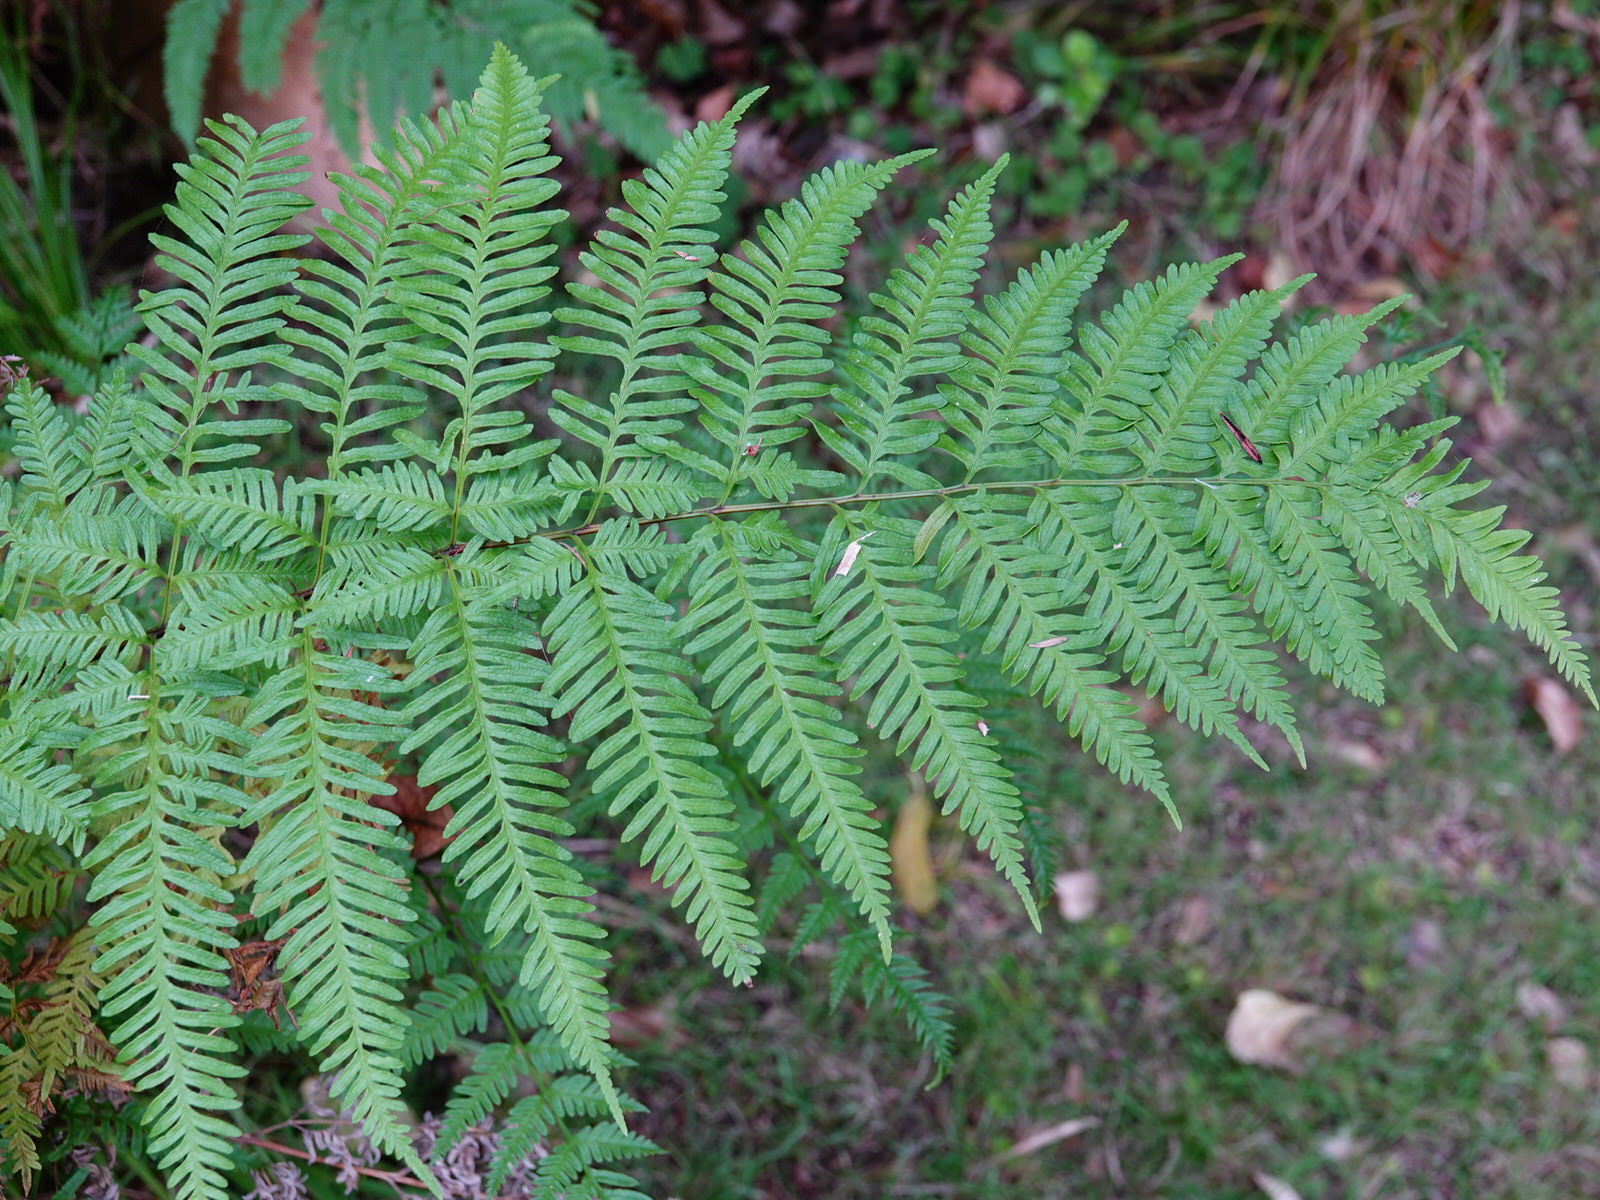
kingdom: Plantae
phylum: Tracheophyta
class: Polypodiopsida
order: Polypodiales
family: Pteridaceae
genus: Pteris
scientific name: Pteris tremula
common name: Australian brake
